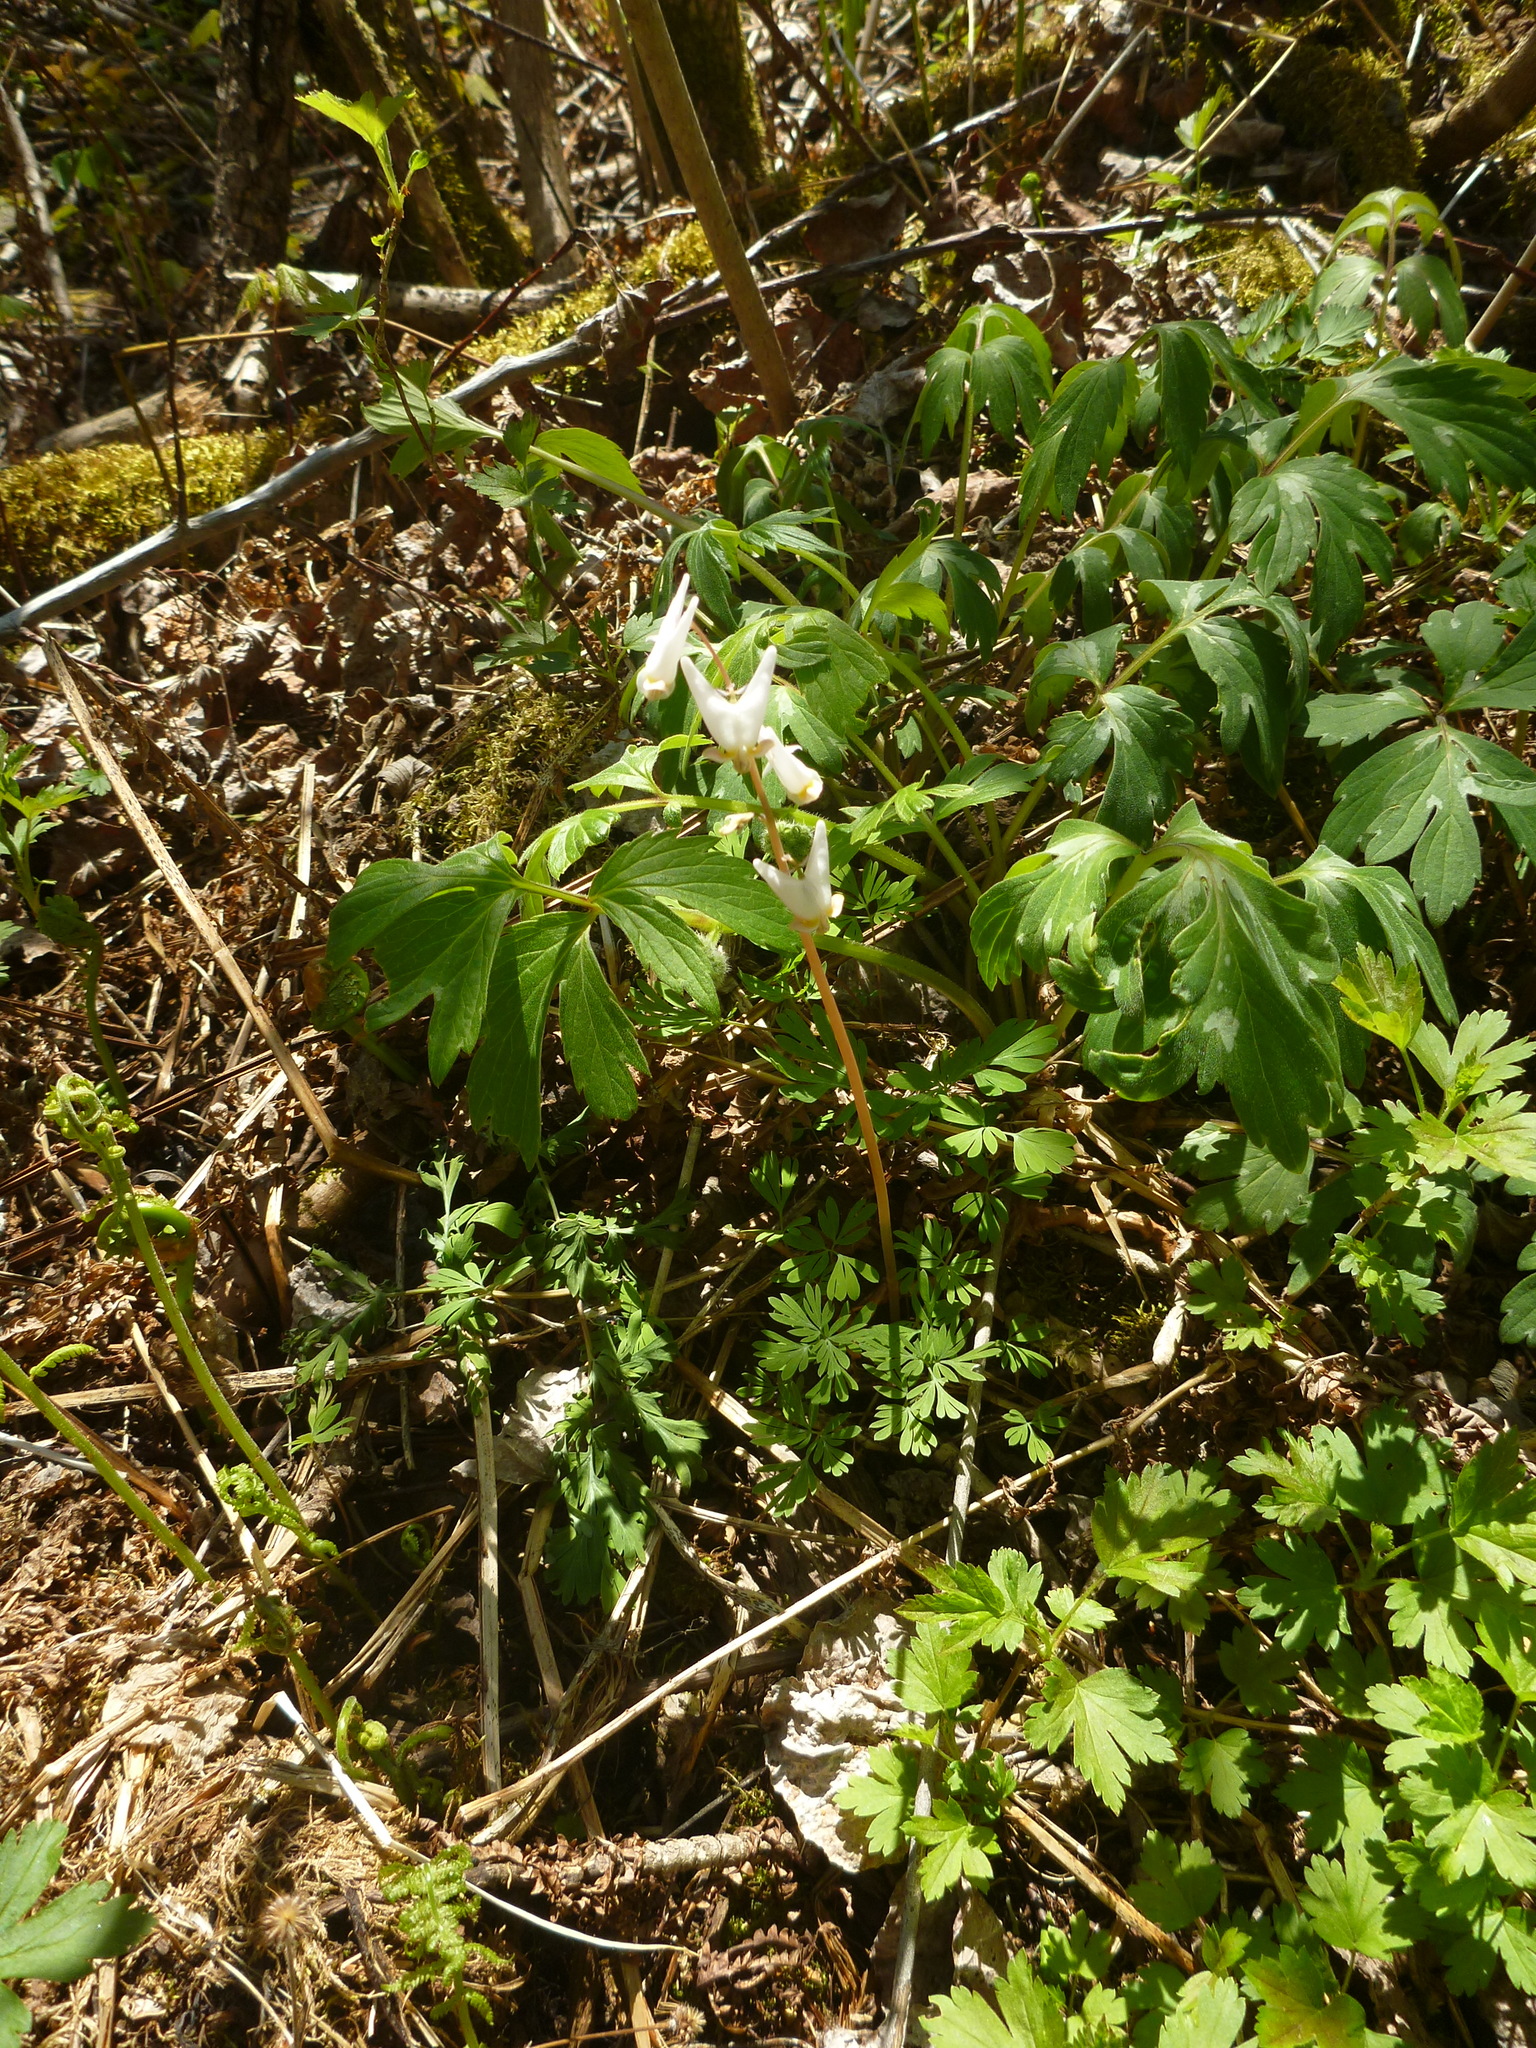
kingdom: Plantae
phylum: Tracheophyta
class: Magnoliopsida
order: Ranunculales
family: Papaveraceae
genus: Dicentra
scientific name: Dicentra cucullaria
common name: Dutchman's breeches
